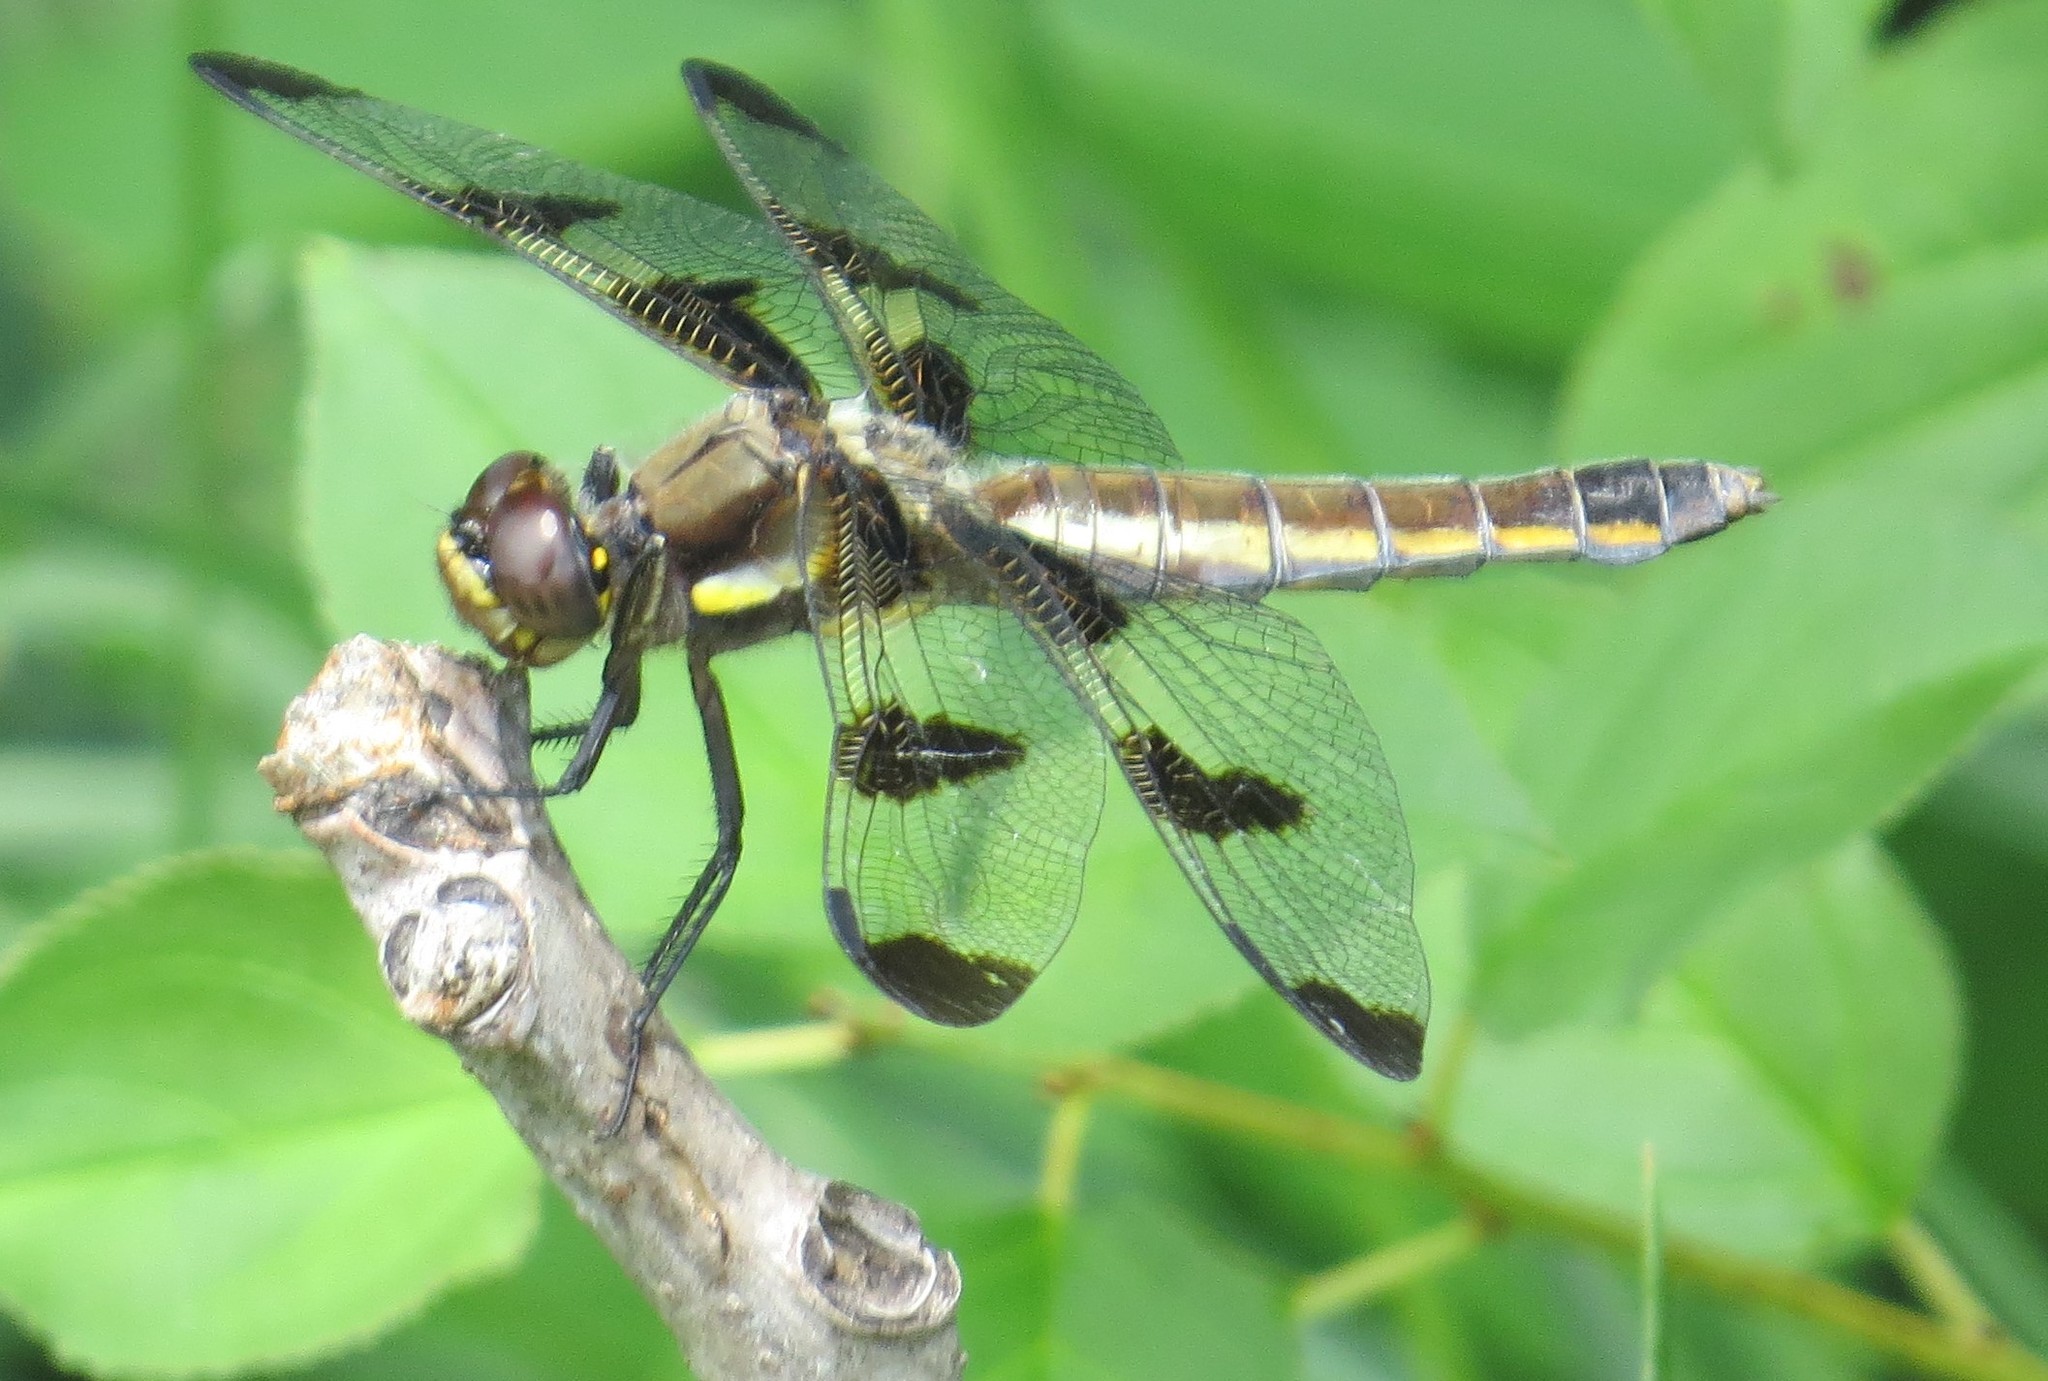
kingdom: Animalia
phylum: Arthropoda
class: Insecta
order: Odonata
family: Libellulidae
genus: Libellula
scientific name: Libellula pulchella
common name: Twelve-spotted skimmer
